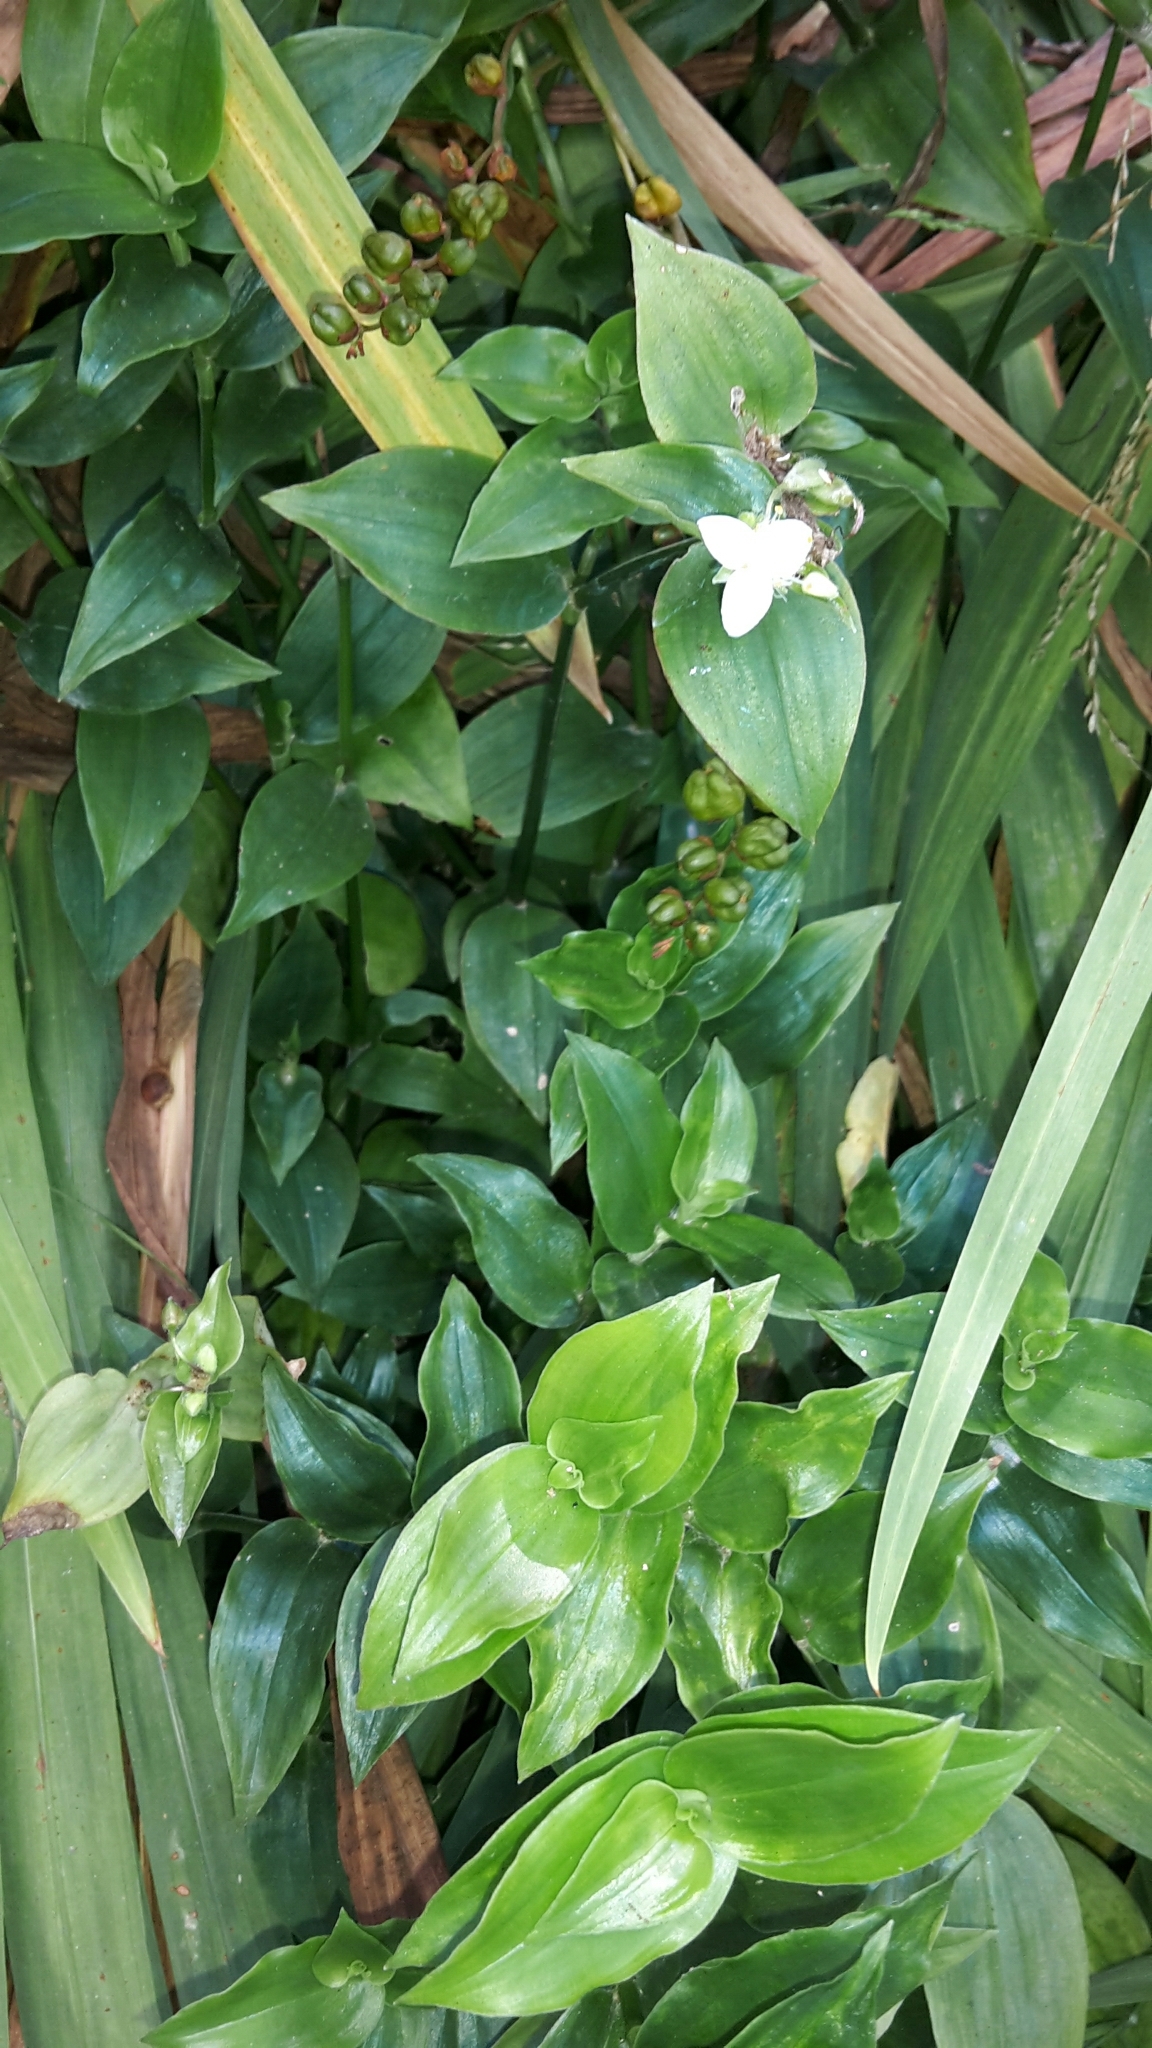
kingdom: Plantae
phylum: Tracheophyta
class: Liliopsida
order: Commelinales
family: Commelinaceae
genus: Tradescantia
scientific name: Tradescantia fluminensis
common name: Wandering-jew
